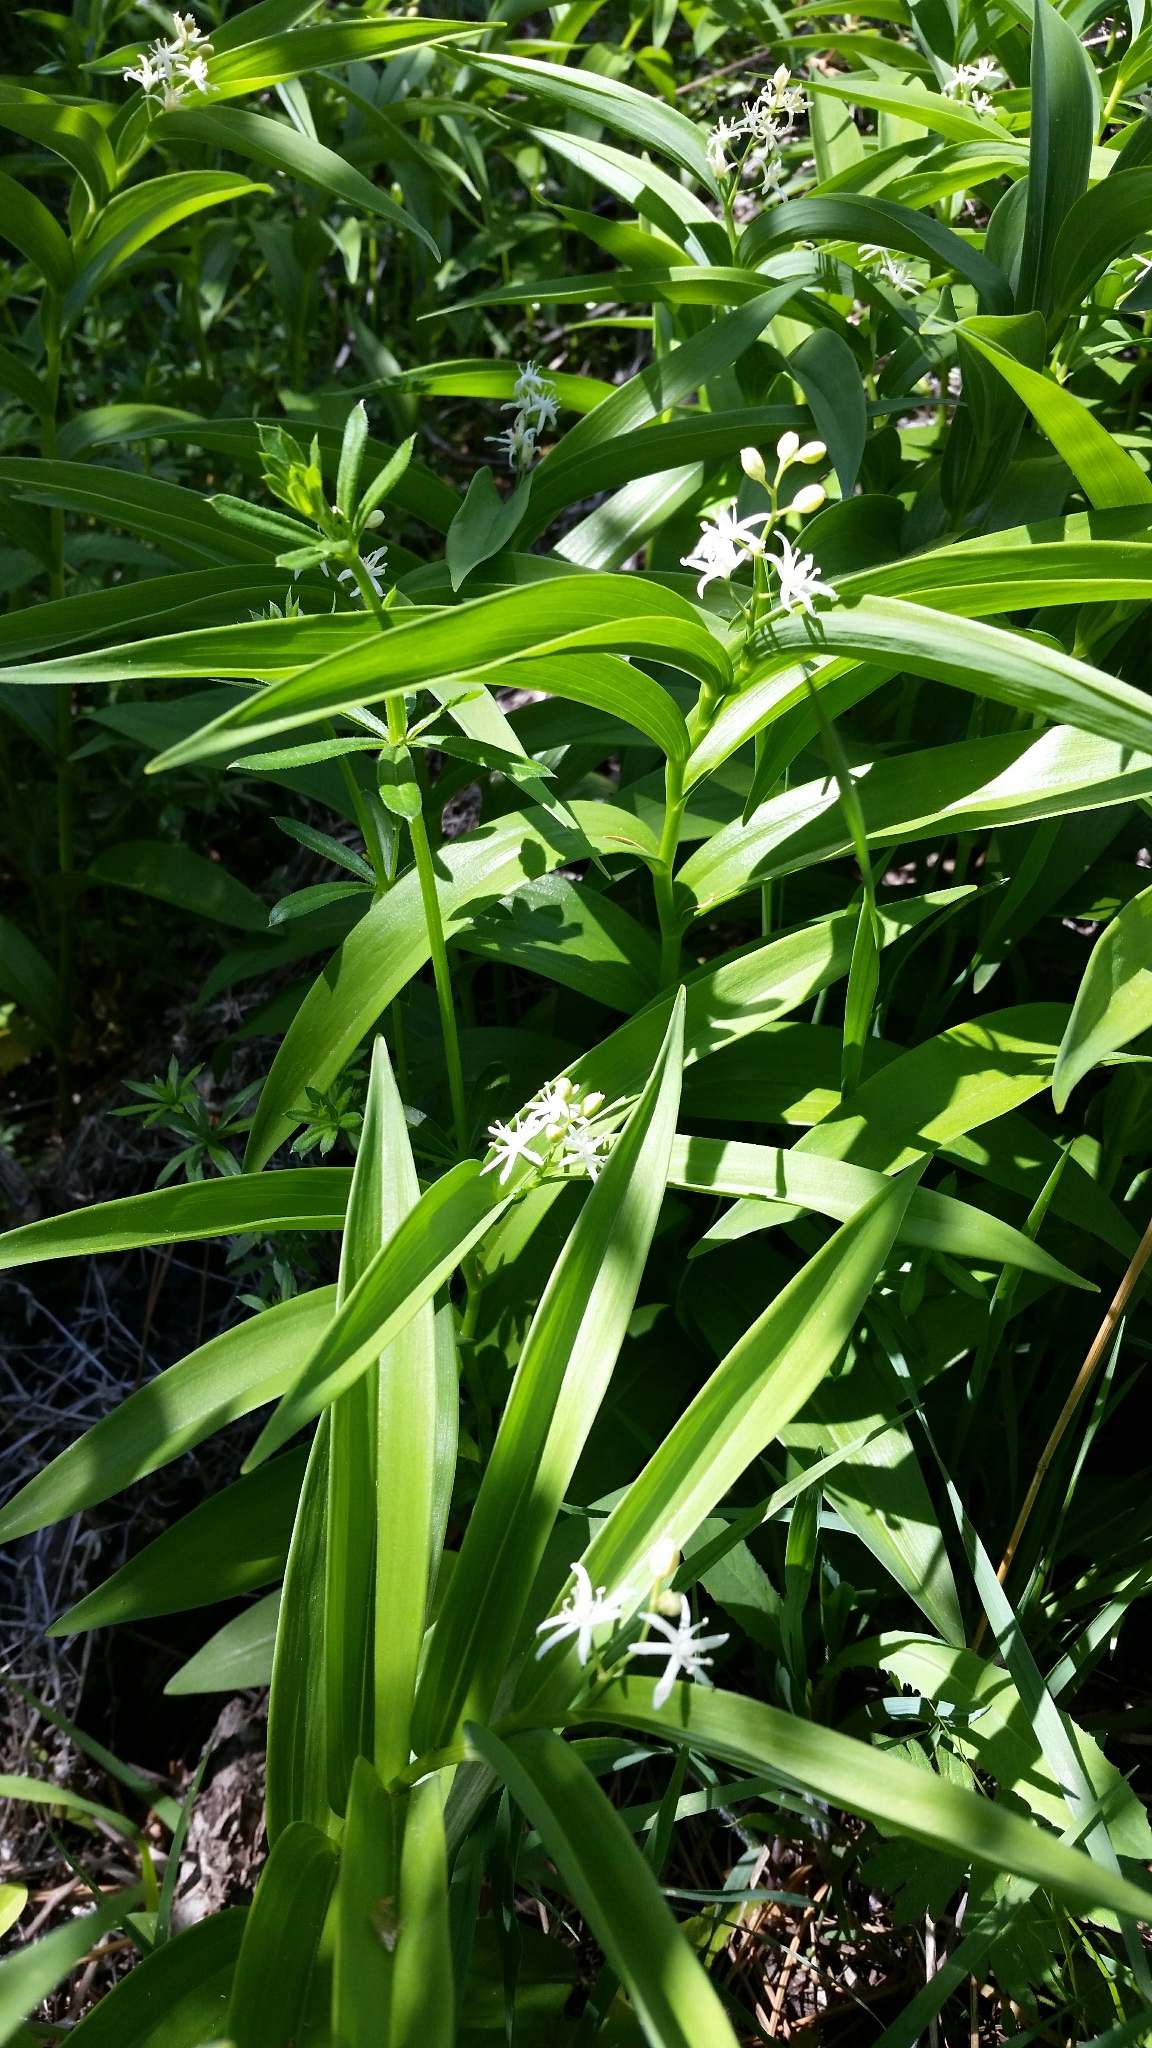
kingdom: Plantae
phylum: Tracheophyta
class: Liliopsida
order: Asparagales
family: Asparagaceae
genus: Maianthemum
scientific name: Maianthemum stellatum
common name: Little false solomon's seal
